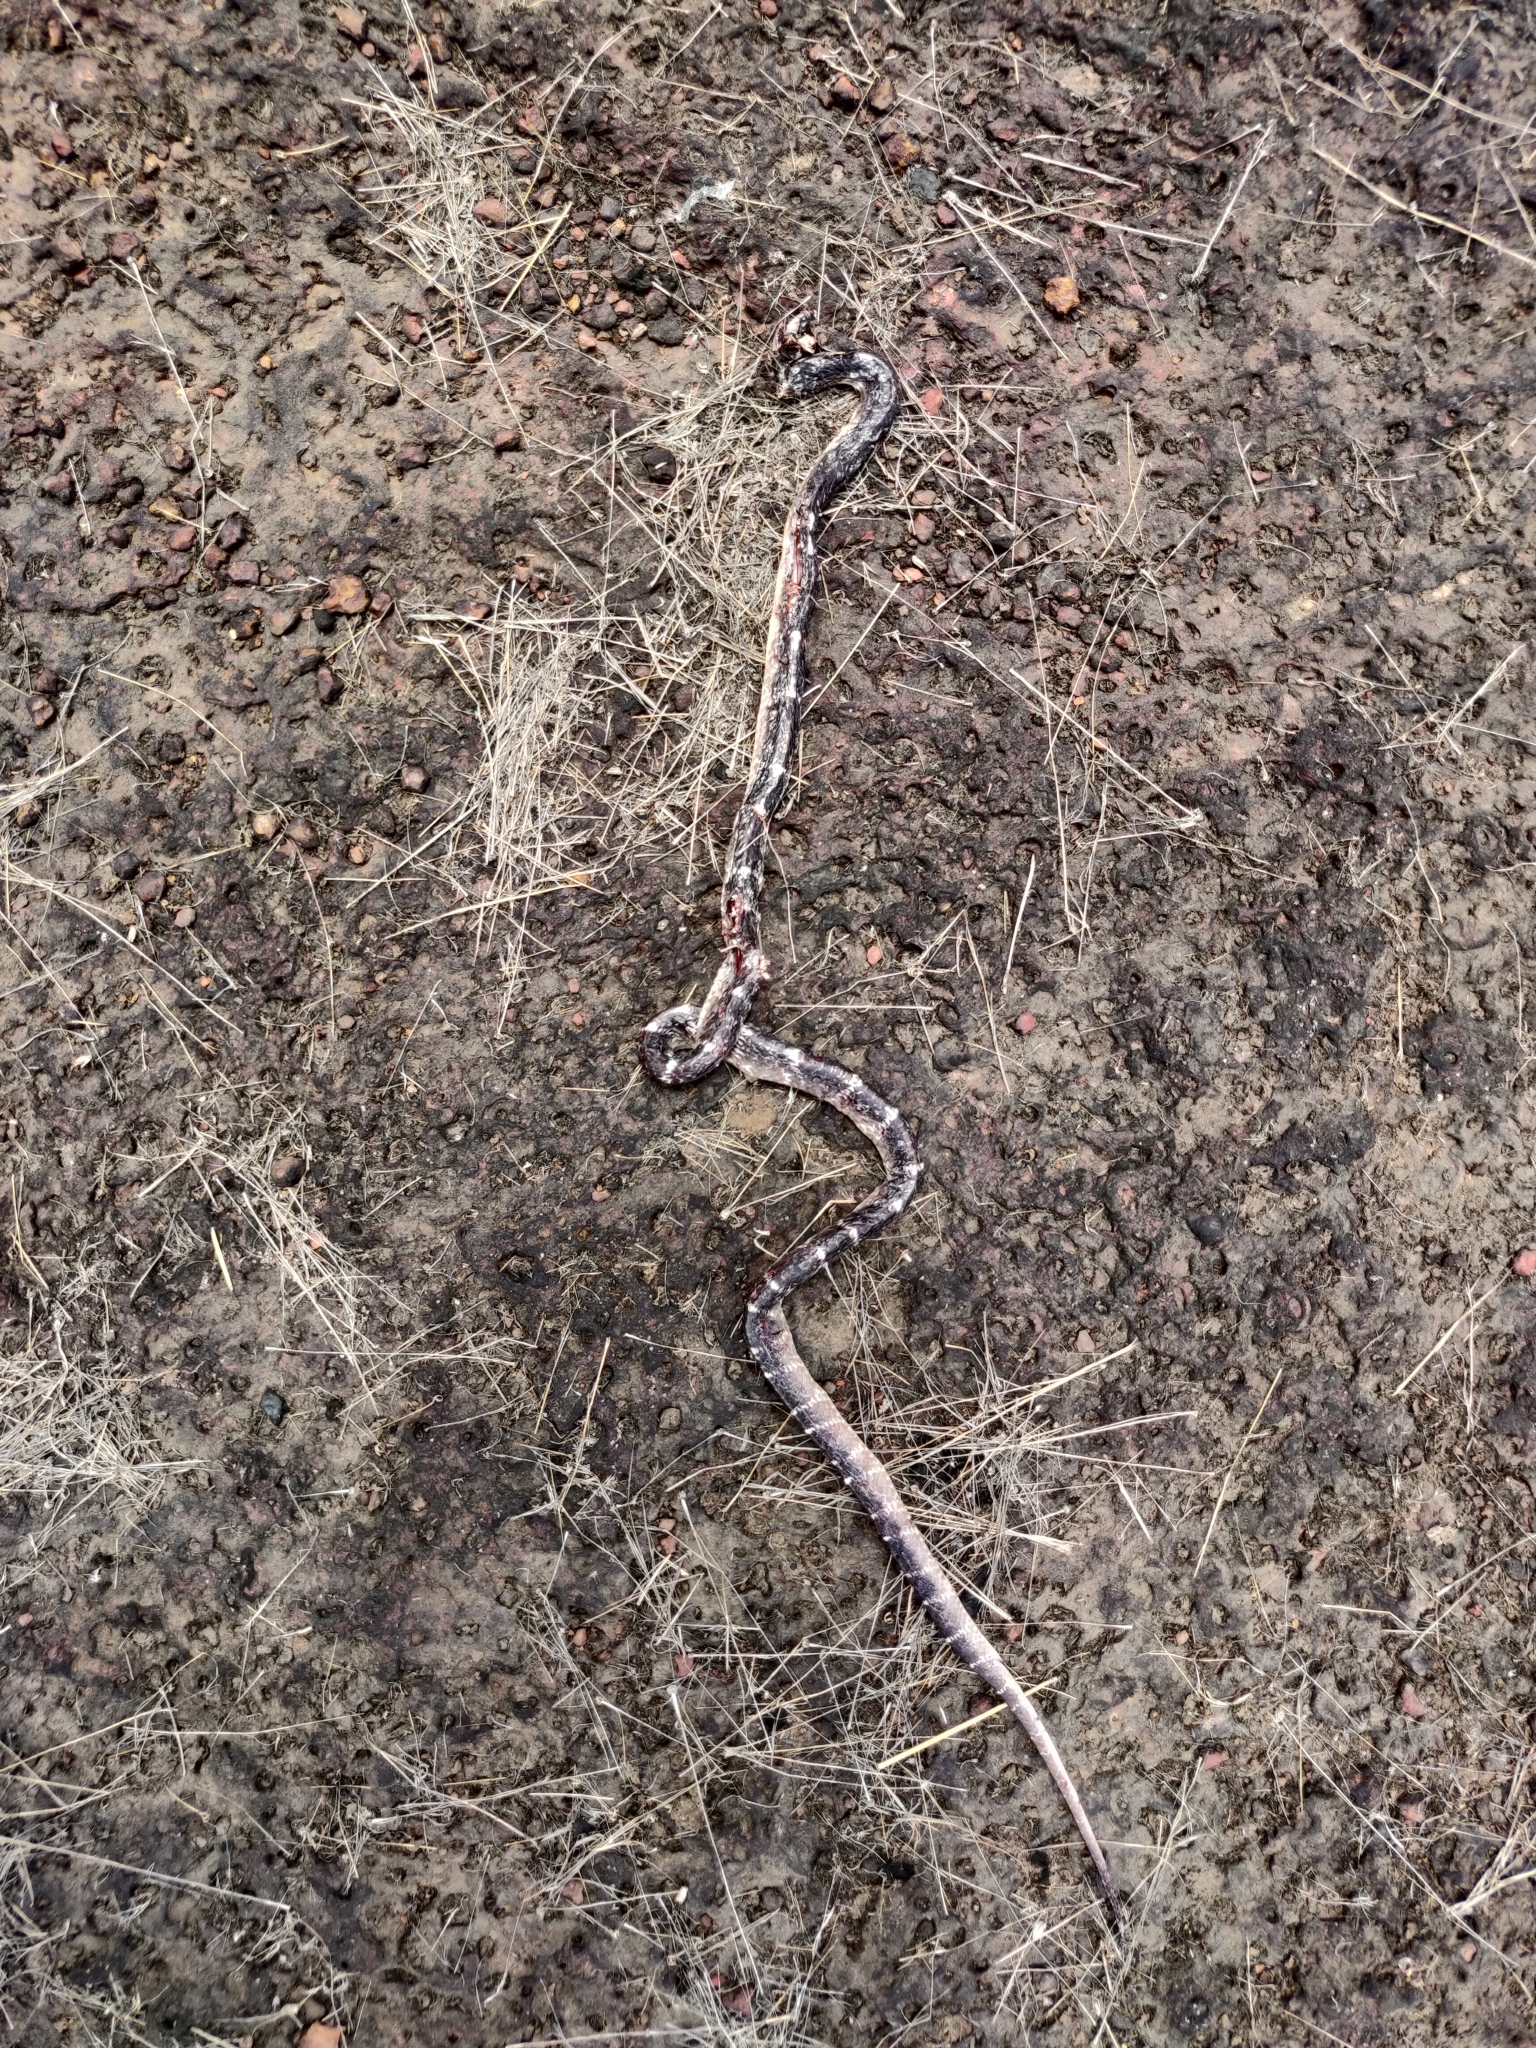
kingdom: Animalia
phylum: Chordata
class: Squamata
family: Elapidae
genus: Bungarus
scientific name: Bungarus caeruleus
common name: Common krait
